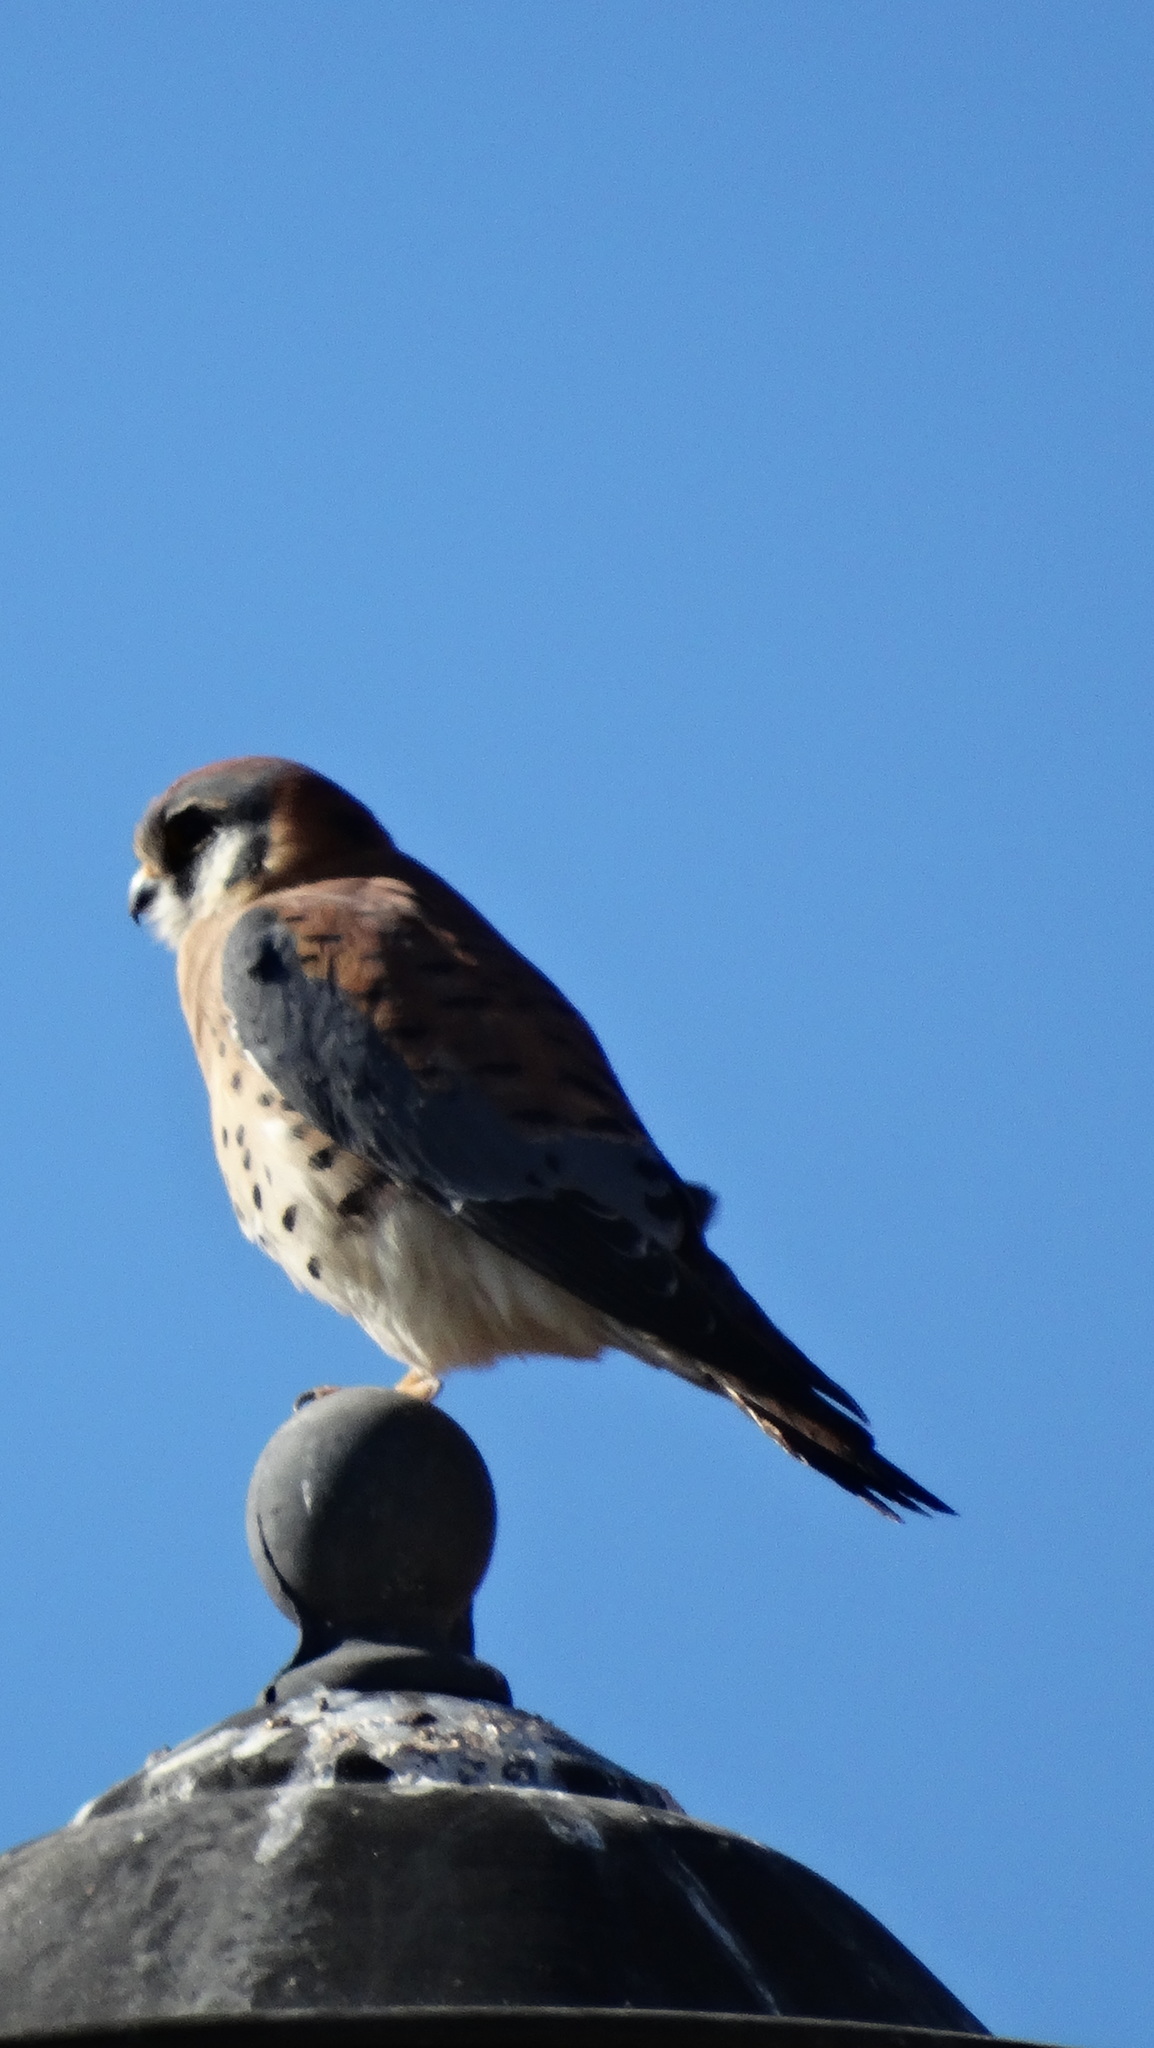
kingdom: Animalia
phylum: Chordata
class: Aves
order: Falconiformes
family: Falconidae
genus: Falco
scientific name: Falco sparverius
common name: American kestrel
